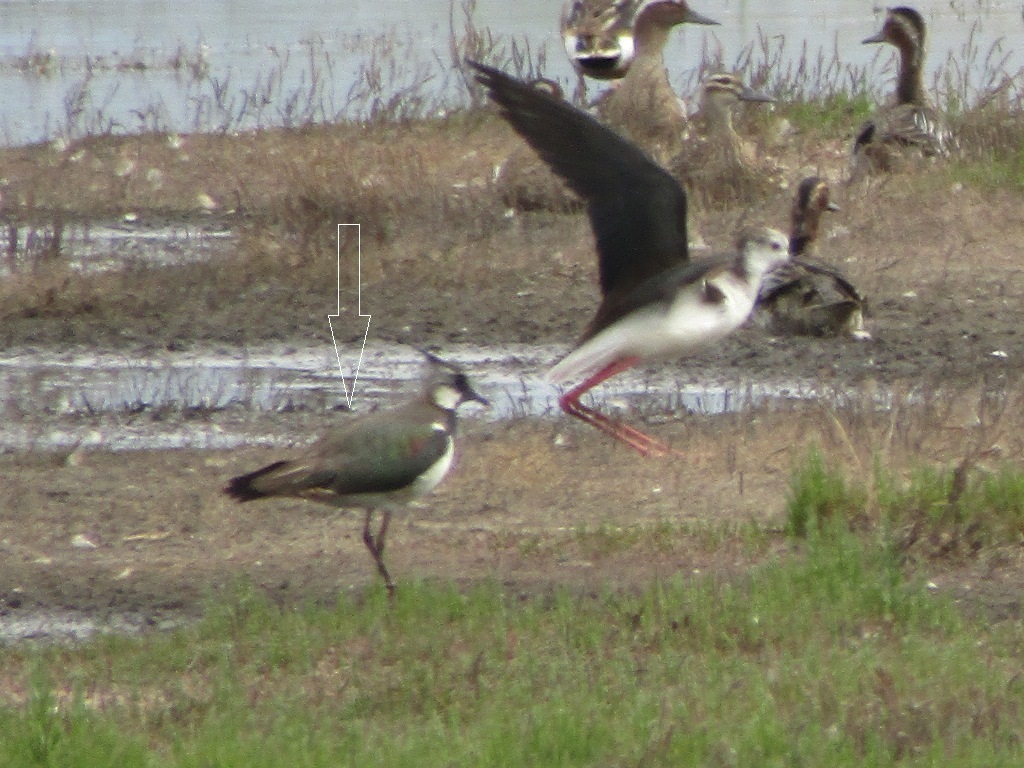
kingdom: Animalia
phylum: Chordata
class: Aves
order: Charadriiformes
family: Charadriidae
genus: Vanellus
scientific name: Vanellus vanellus
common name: Northern lapwing
